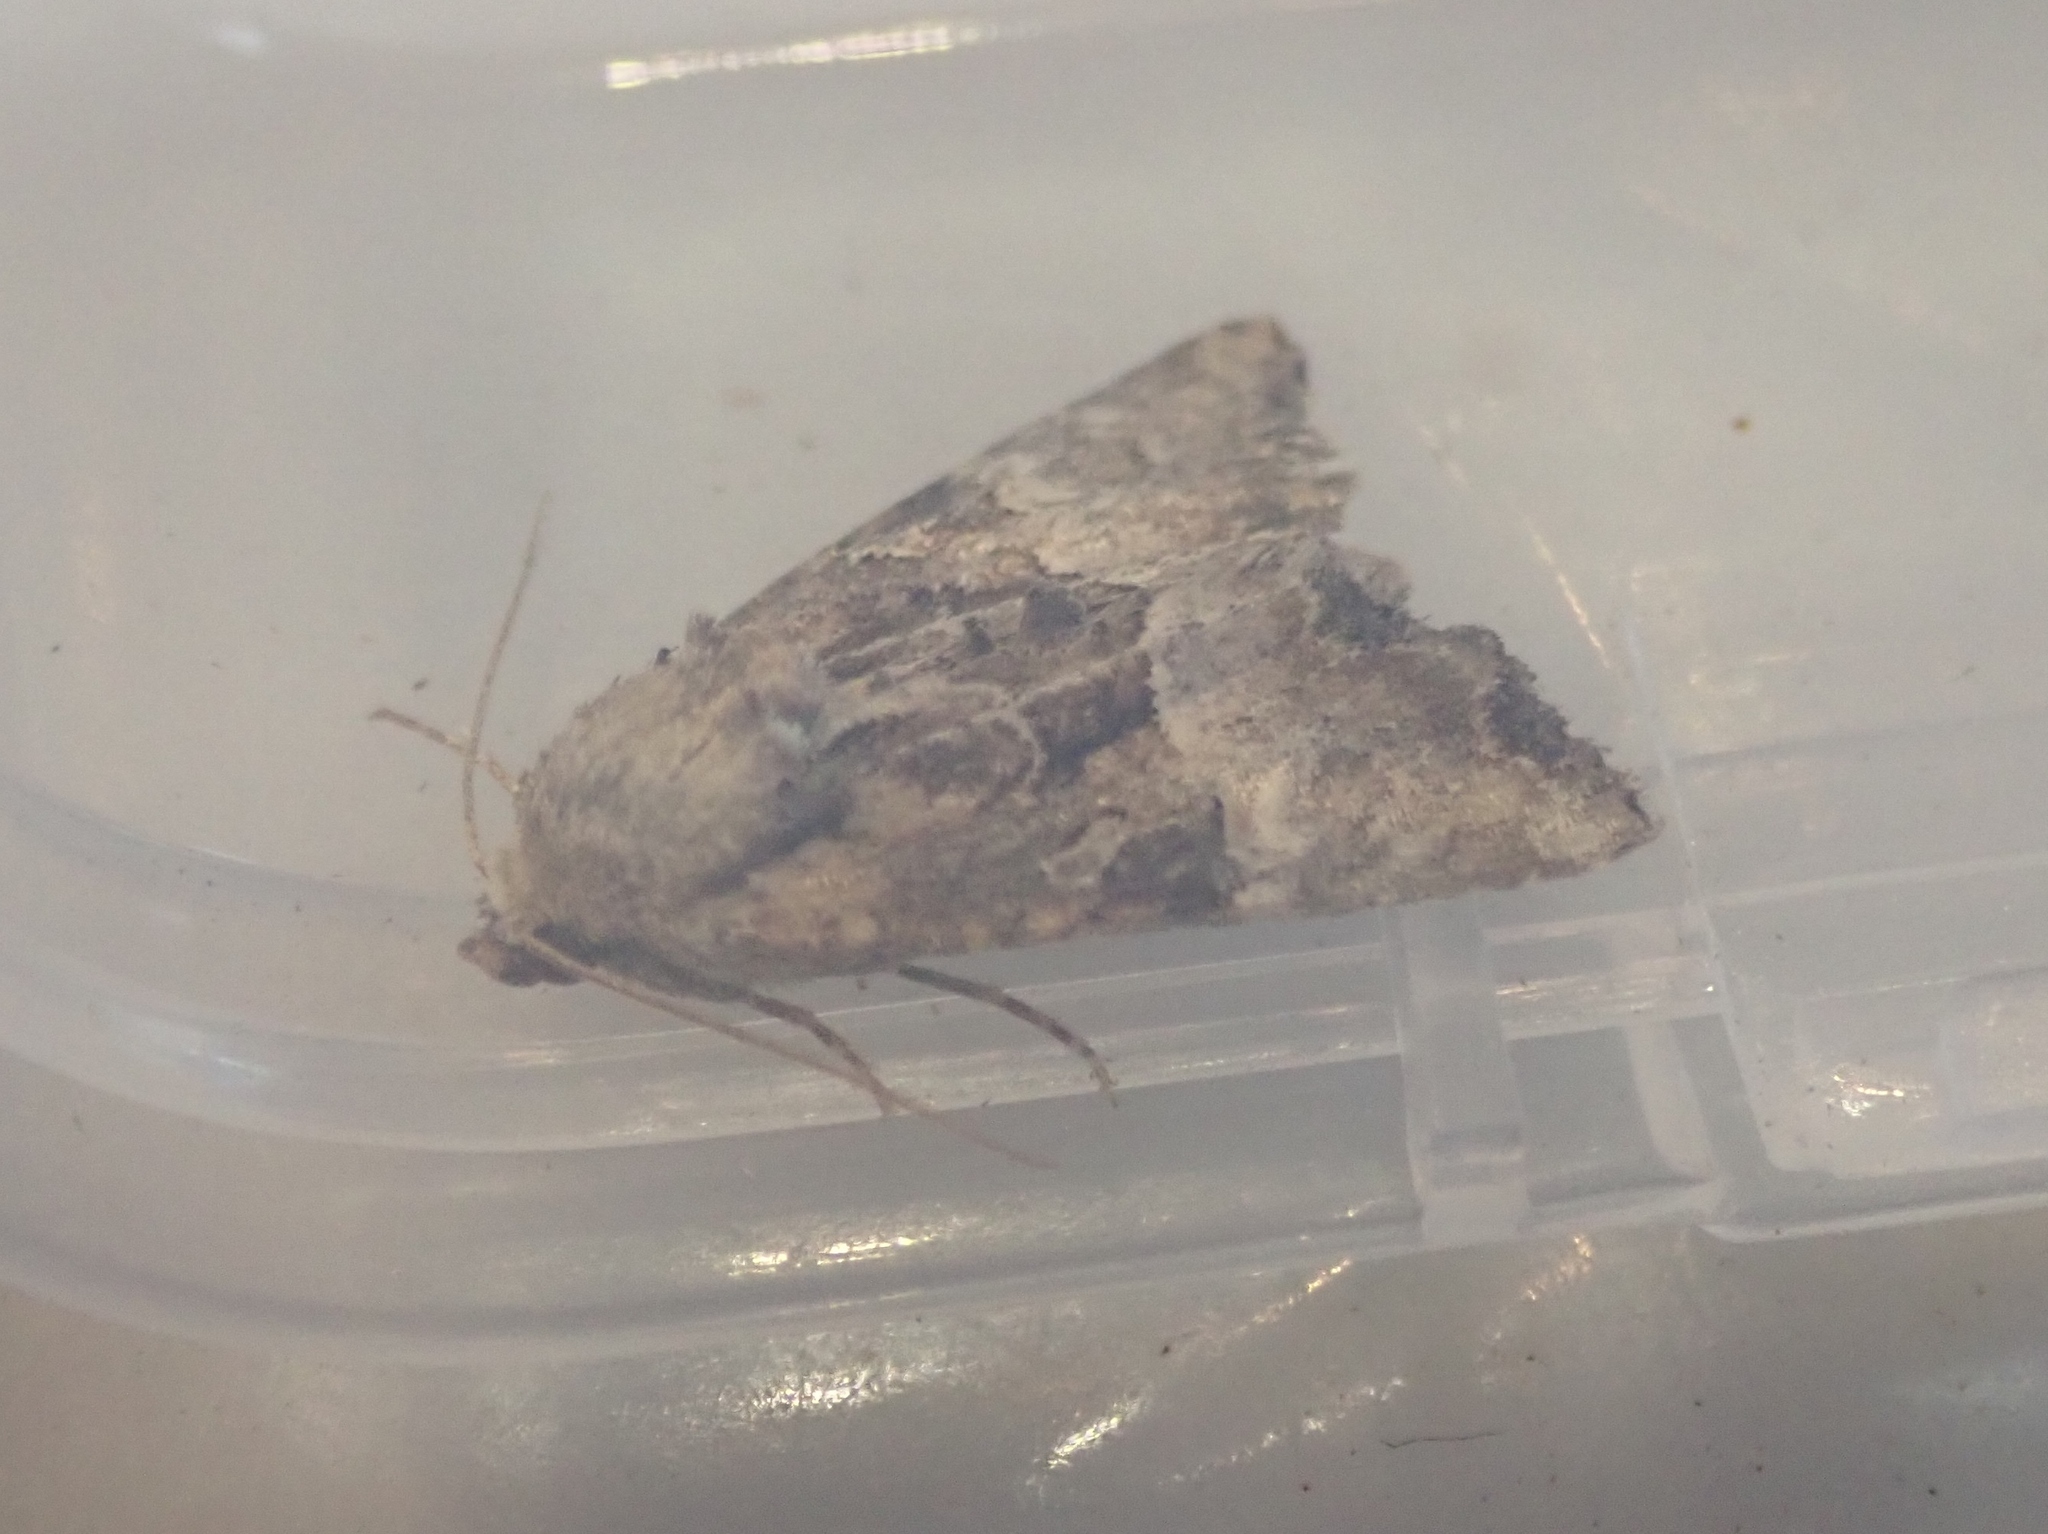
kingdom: Animalia
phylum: Arthropoda
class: Insecta
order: Lepidoptera
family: Noctuidae
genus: Mesoligia
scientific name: Mesoligia furuncula
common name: Cloaked minor
